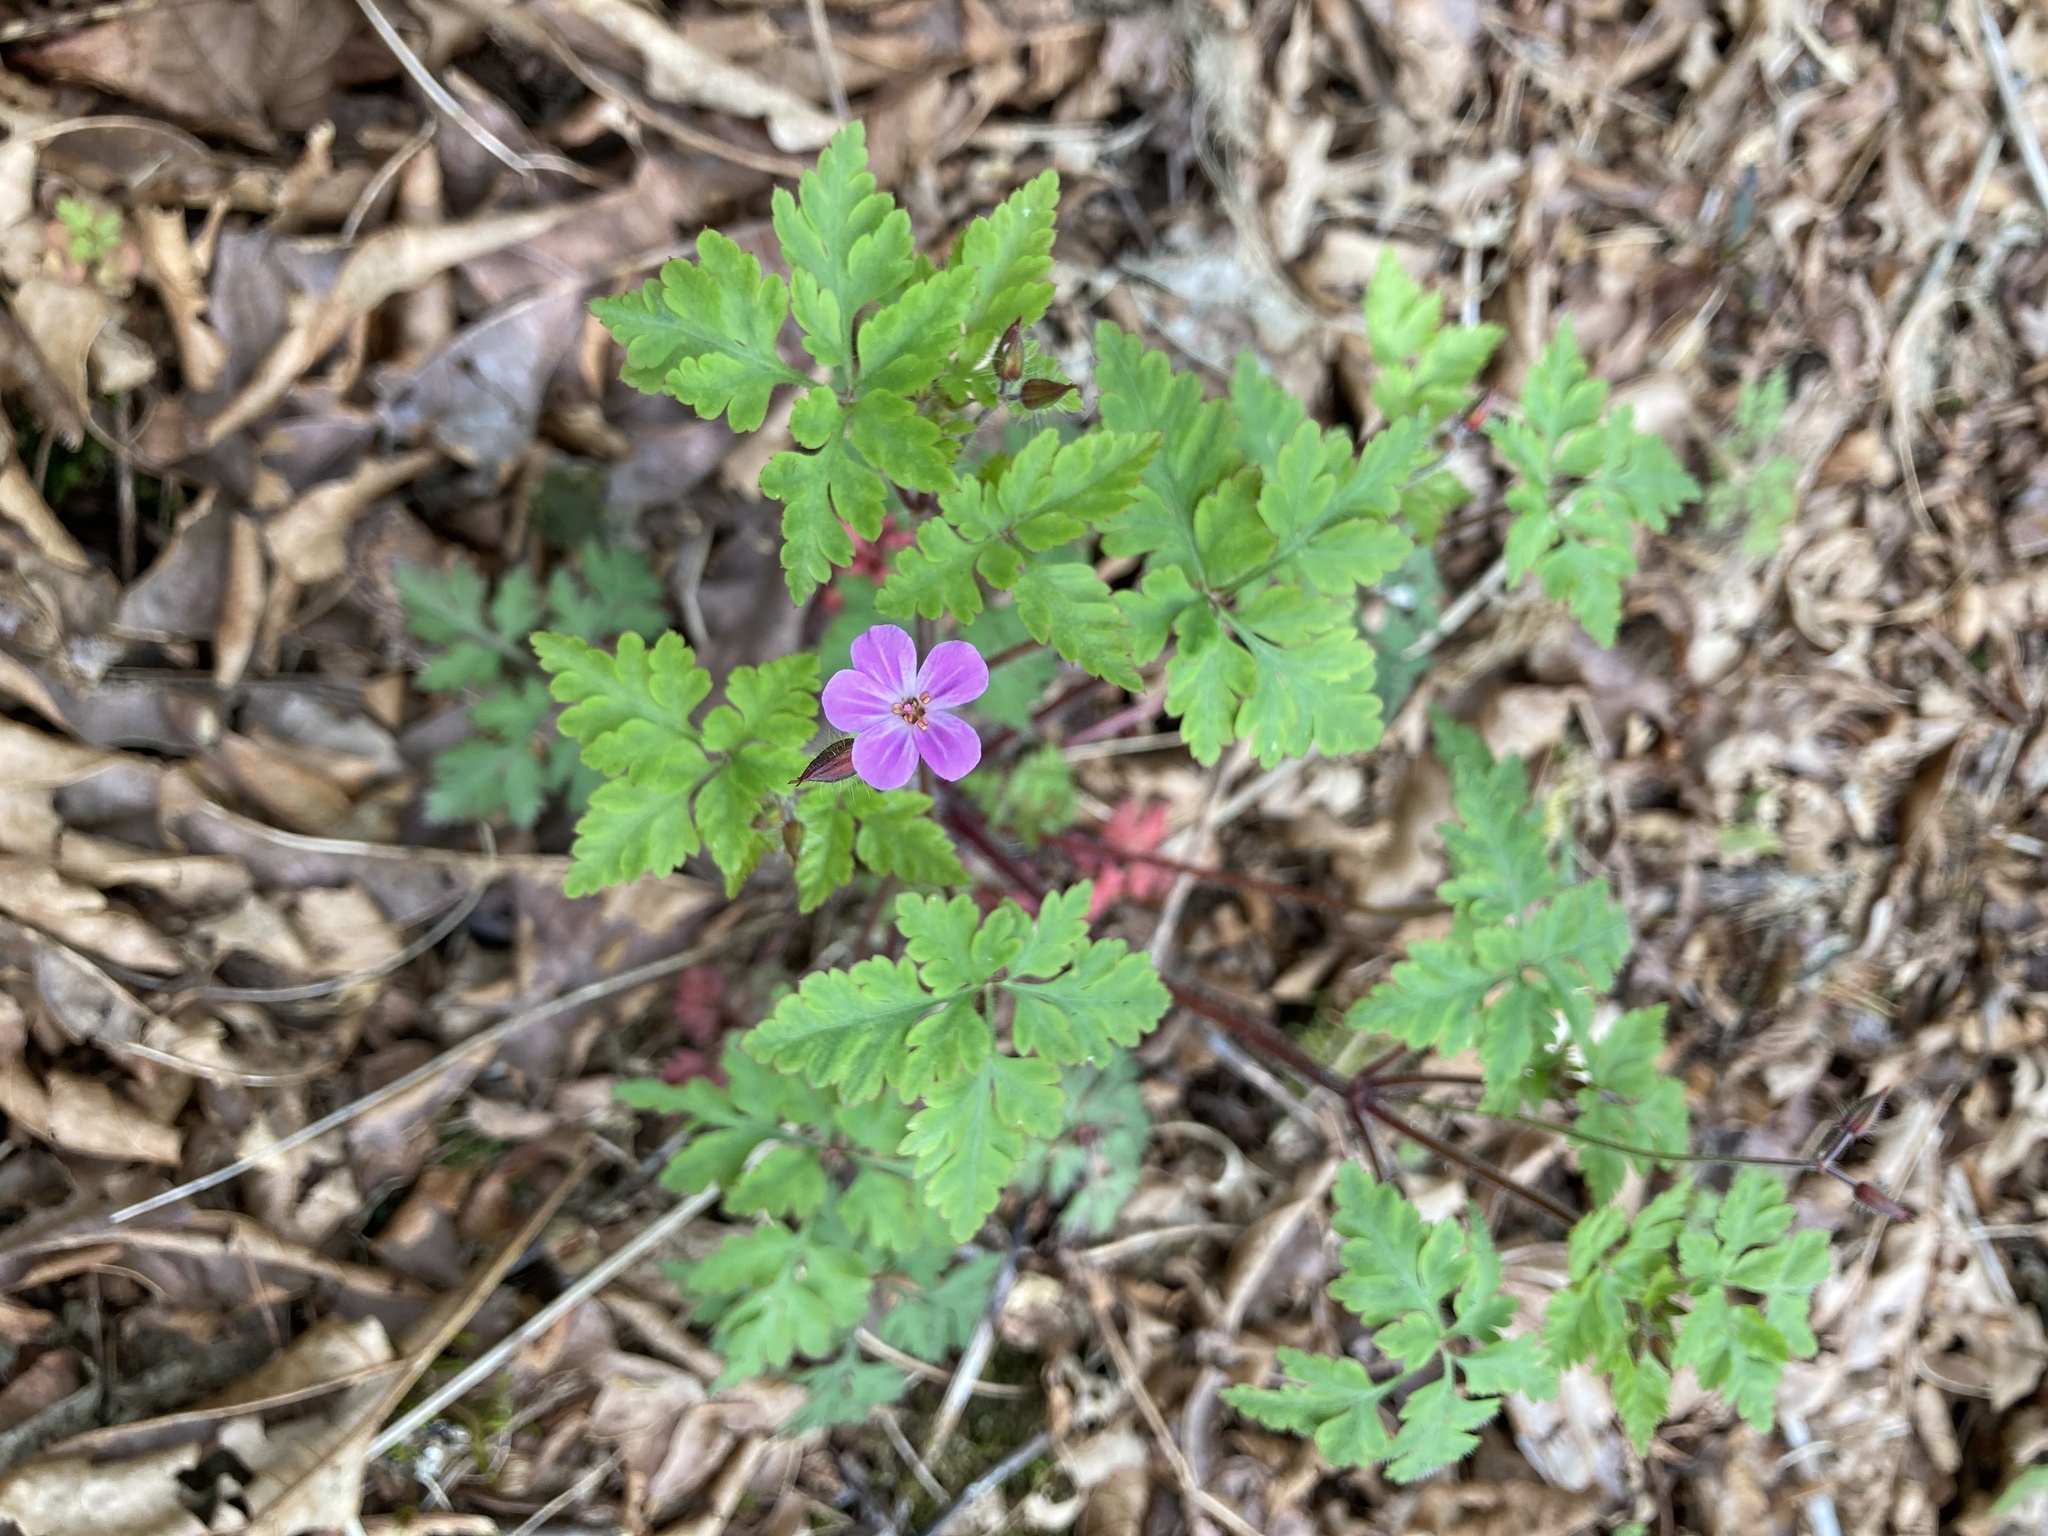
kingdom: Plantae
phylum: Tracheophyta
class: Magnoliopsida
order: Geraniales
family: Geraniaceae
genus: Geranium
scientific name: Geranium robertianum
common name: Herb-robert
